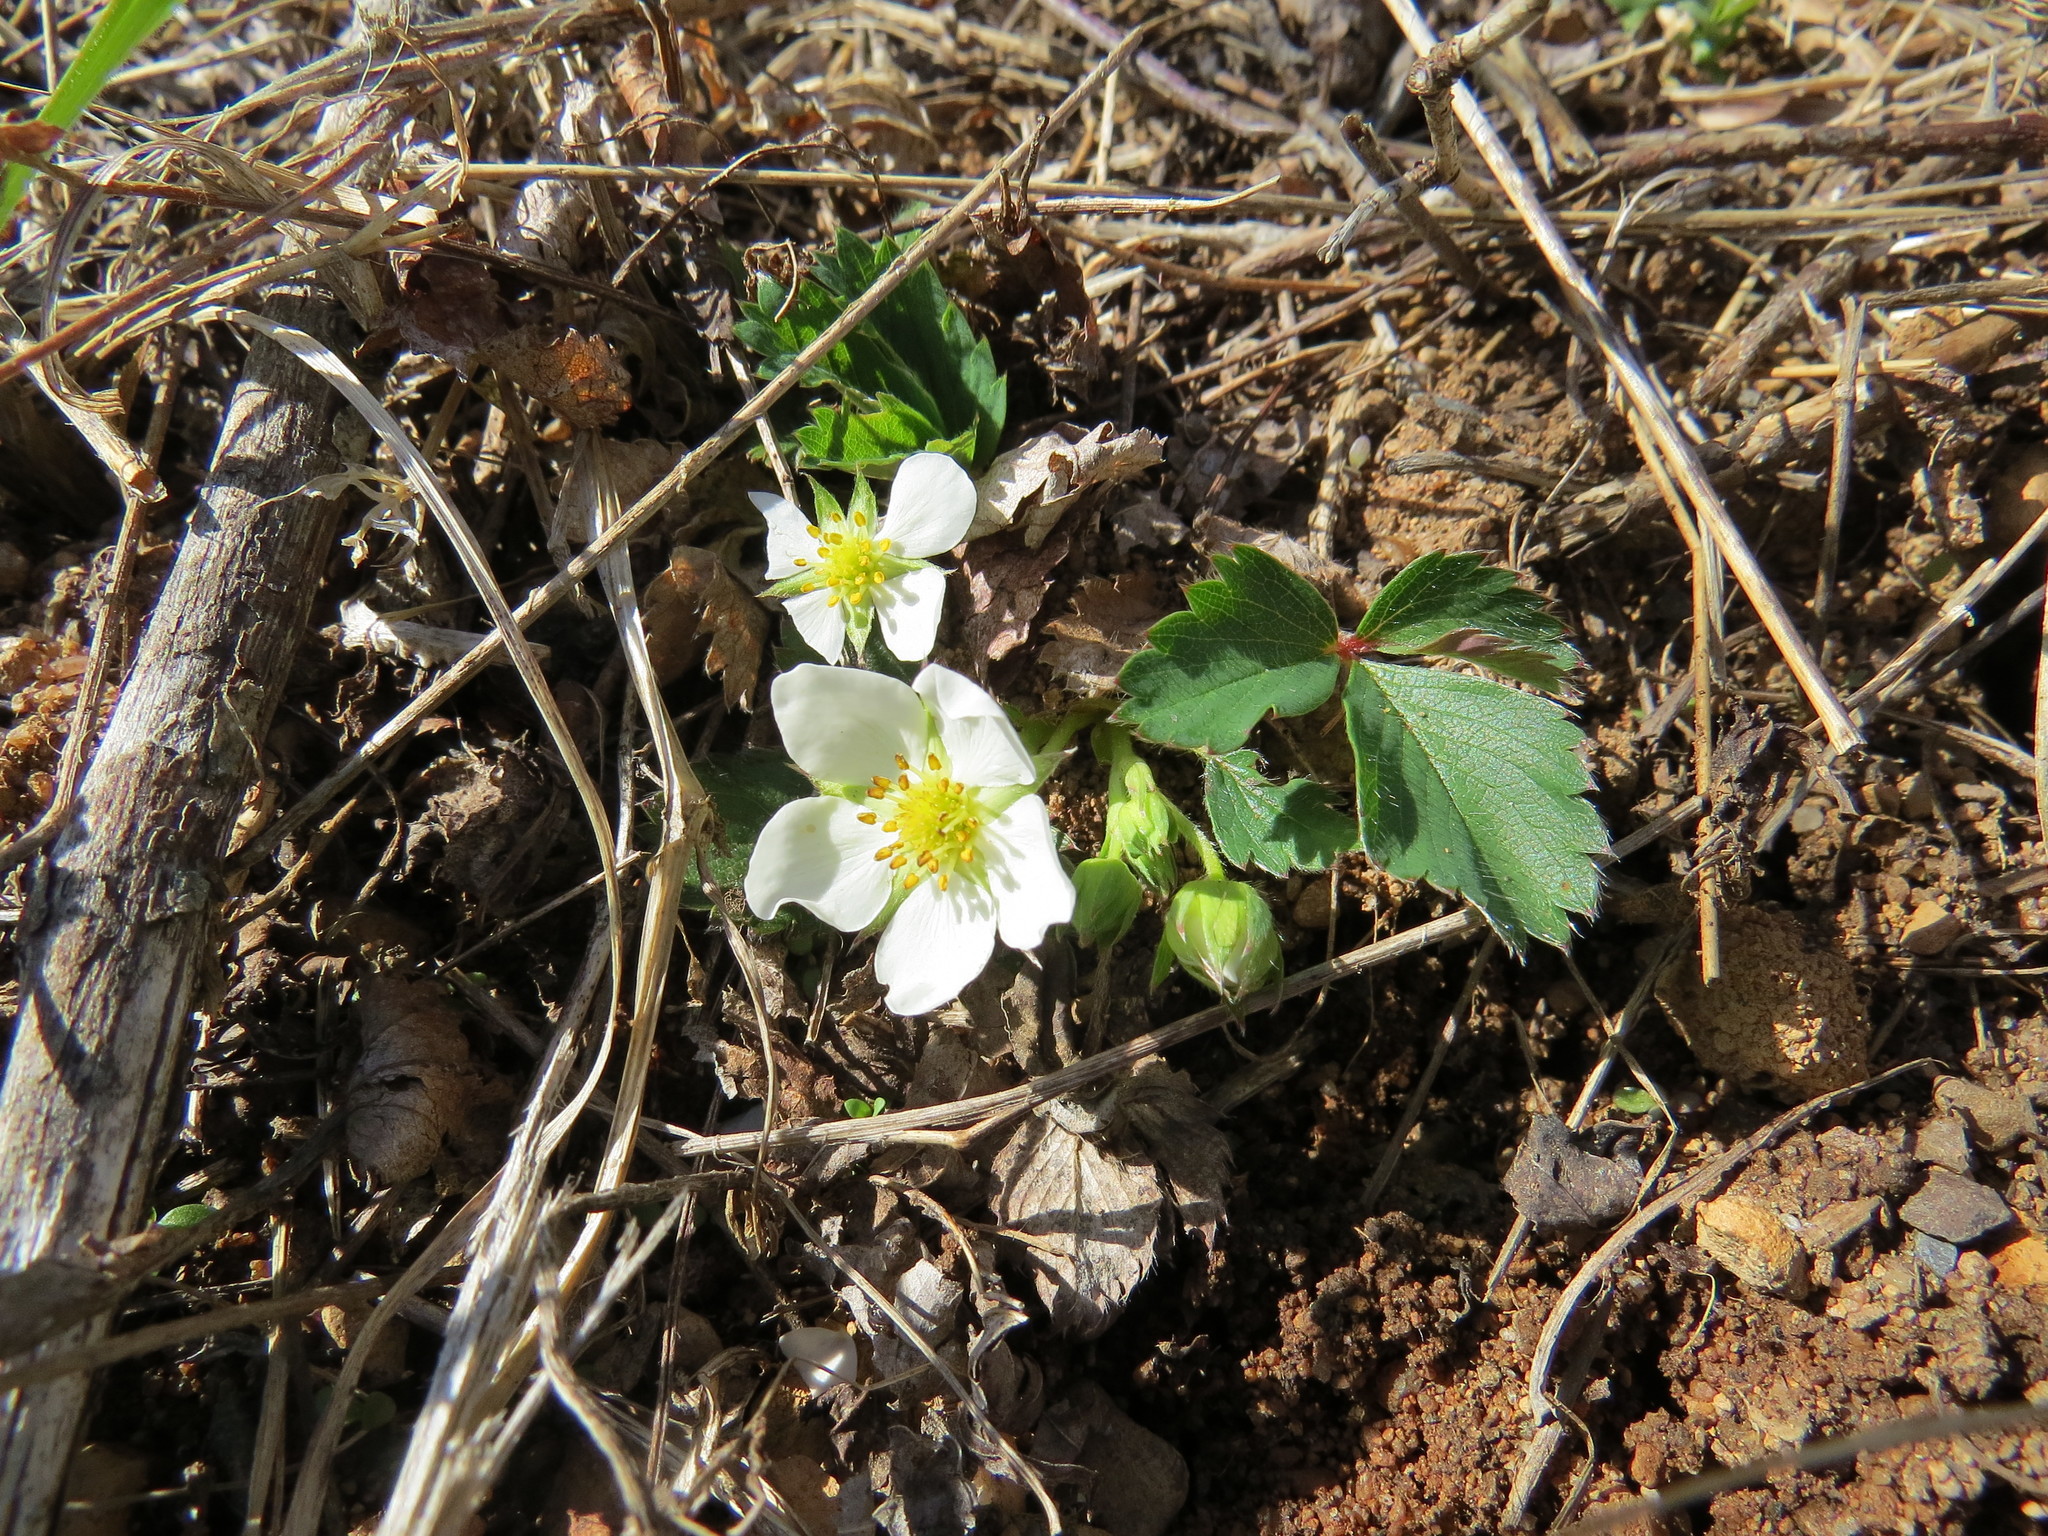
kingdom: Plantae
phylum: Tracheophyta
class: Magnoliopsida
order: Rosales
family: Rosaceae
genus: Fragaria
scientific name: Fragaria virginiana
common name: Thickleaved wild strawberry
